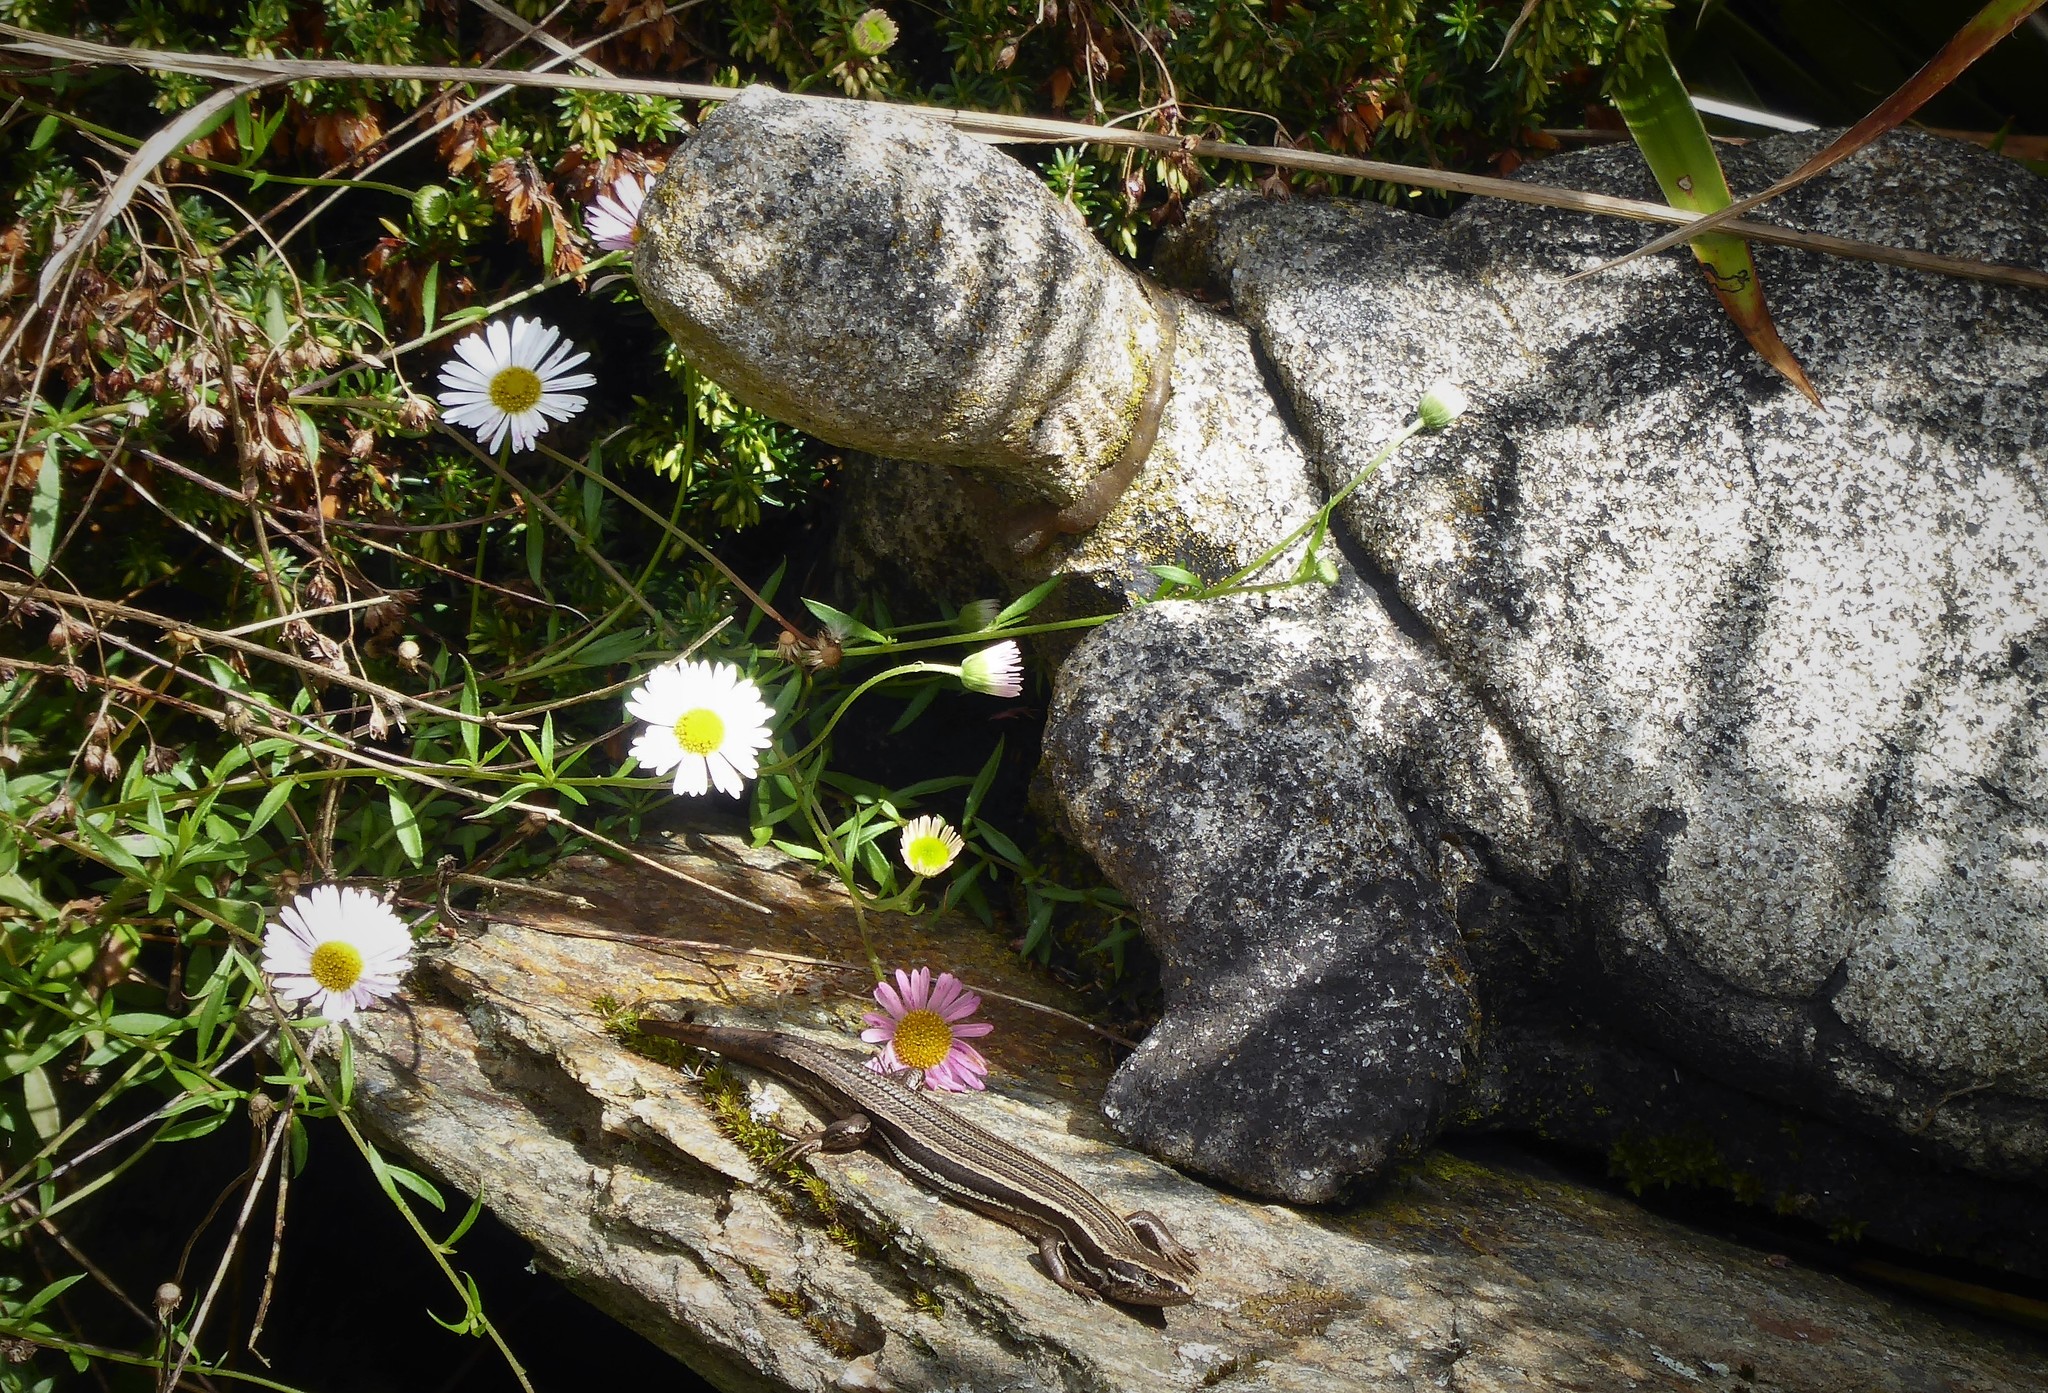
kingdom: Animalia
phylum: Chordata
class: Squamata
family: Scincidae
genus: Oligosoma
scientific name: Oligosoma polychroma
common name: Common new zealand skink
